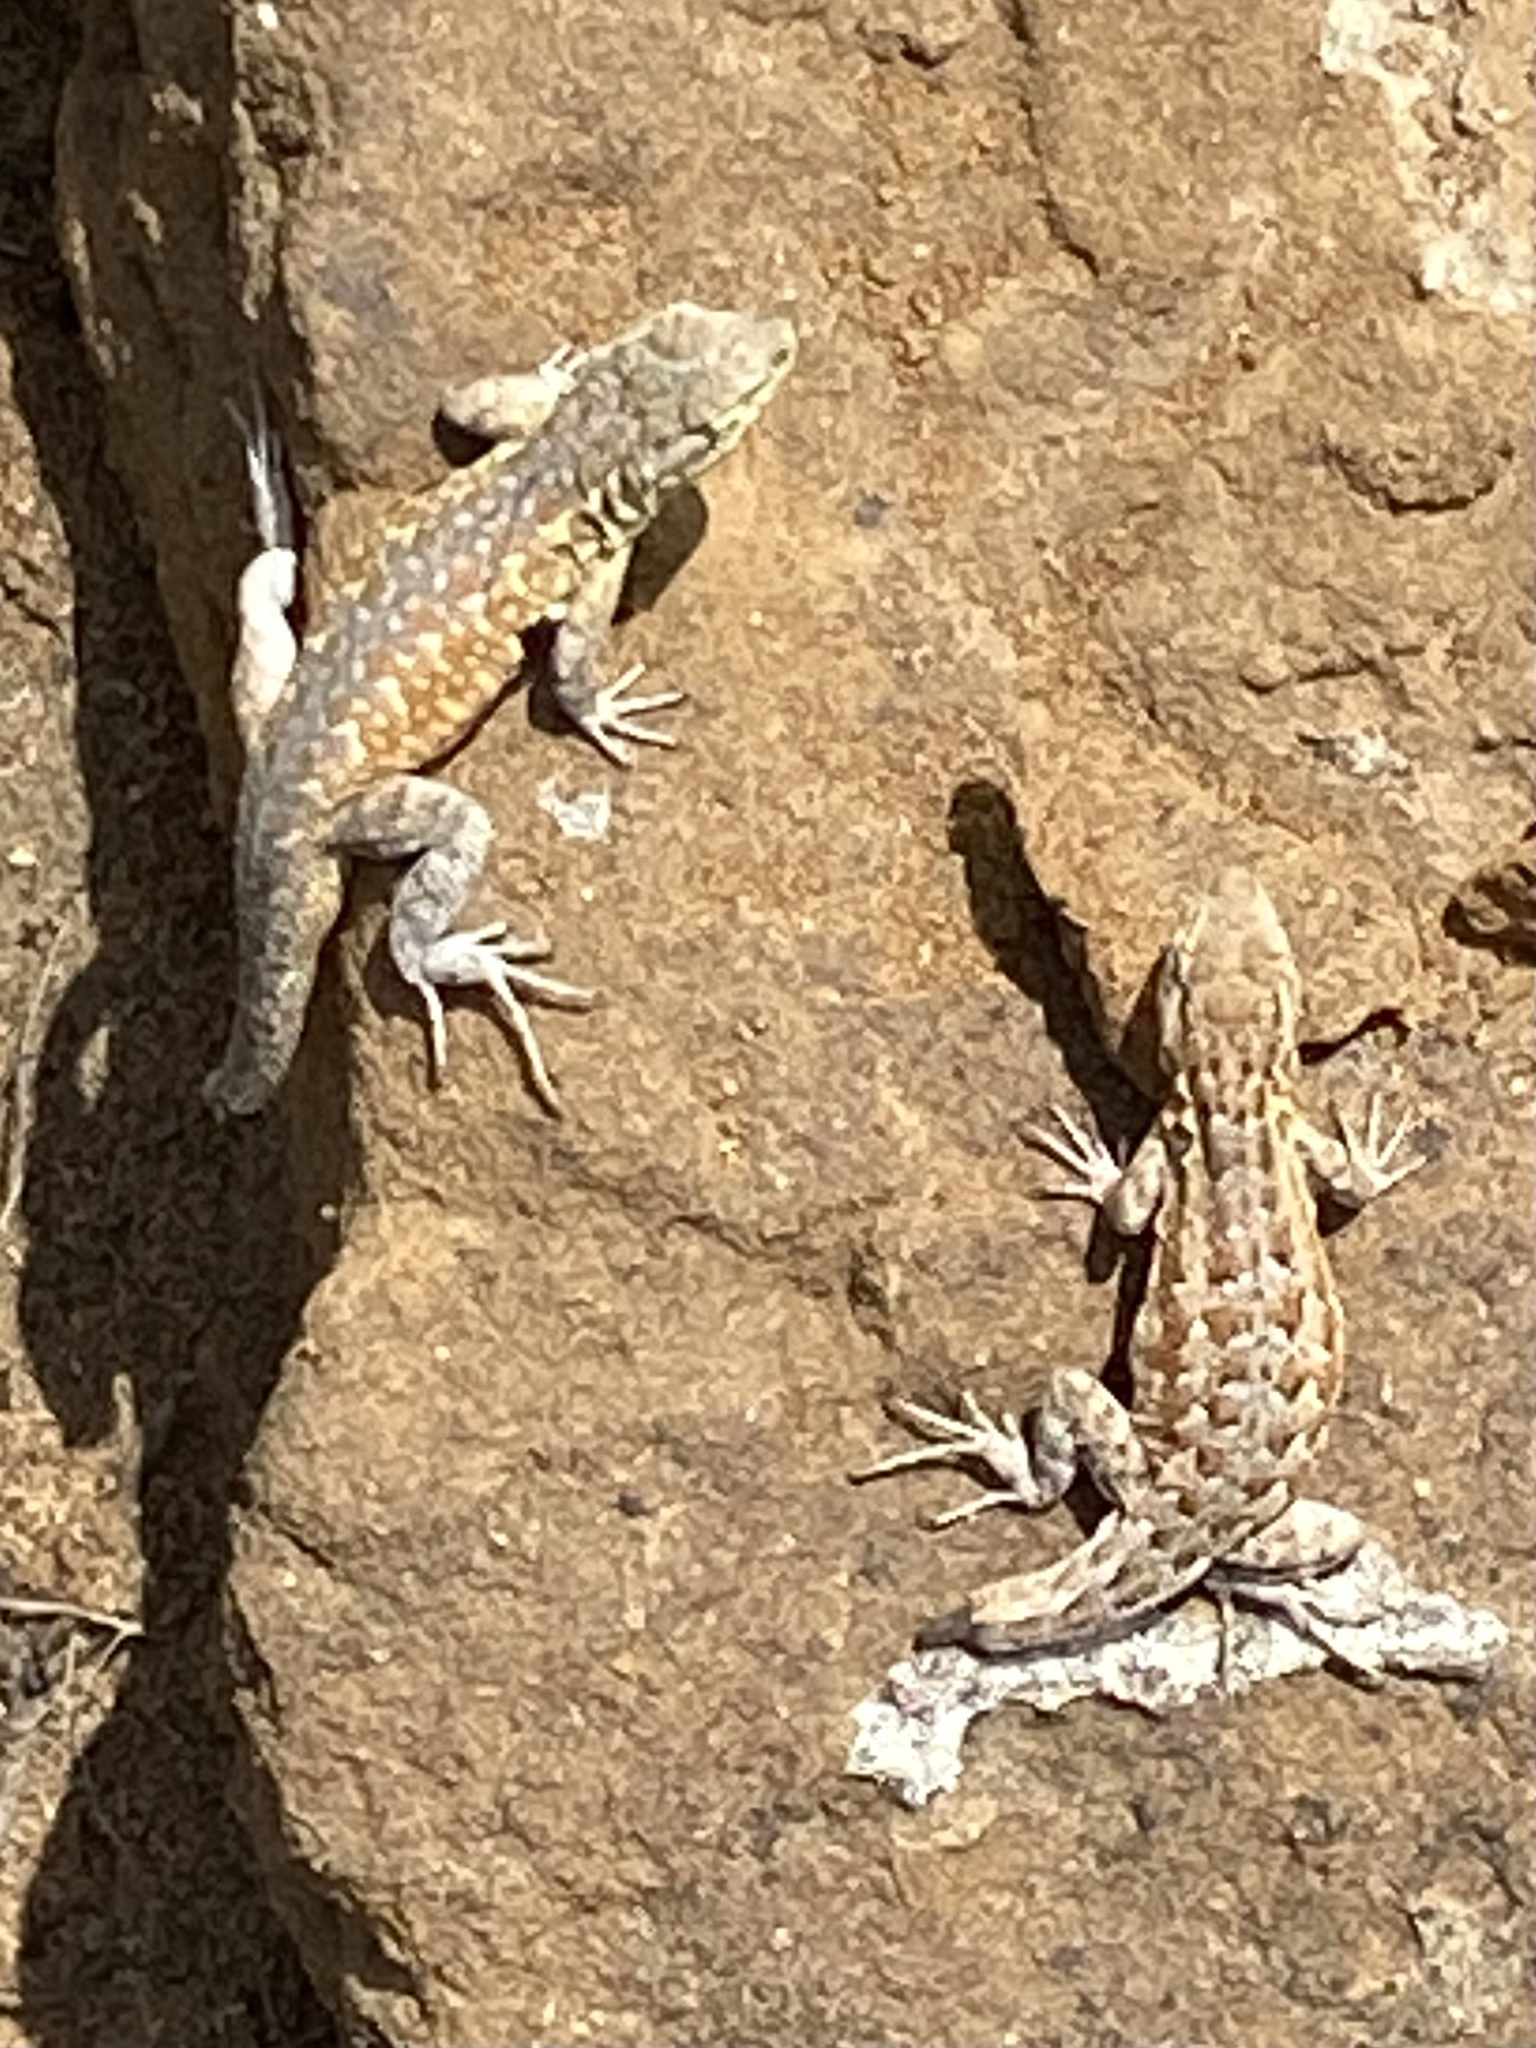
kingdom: Animalia
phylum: Chordata
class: Squamata
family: Phrynosomatidae
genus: Uta
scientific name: Uta stansburiana
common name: Side-blotched lizard
